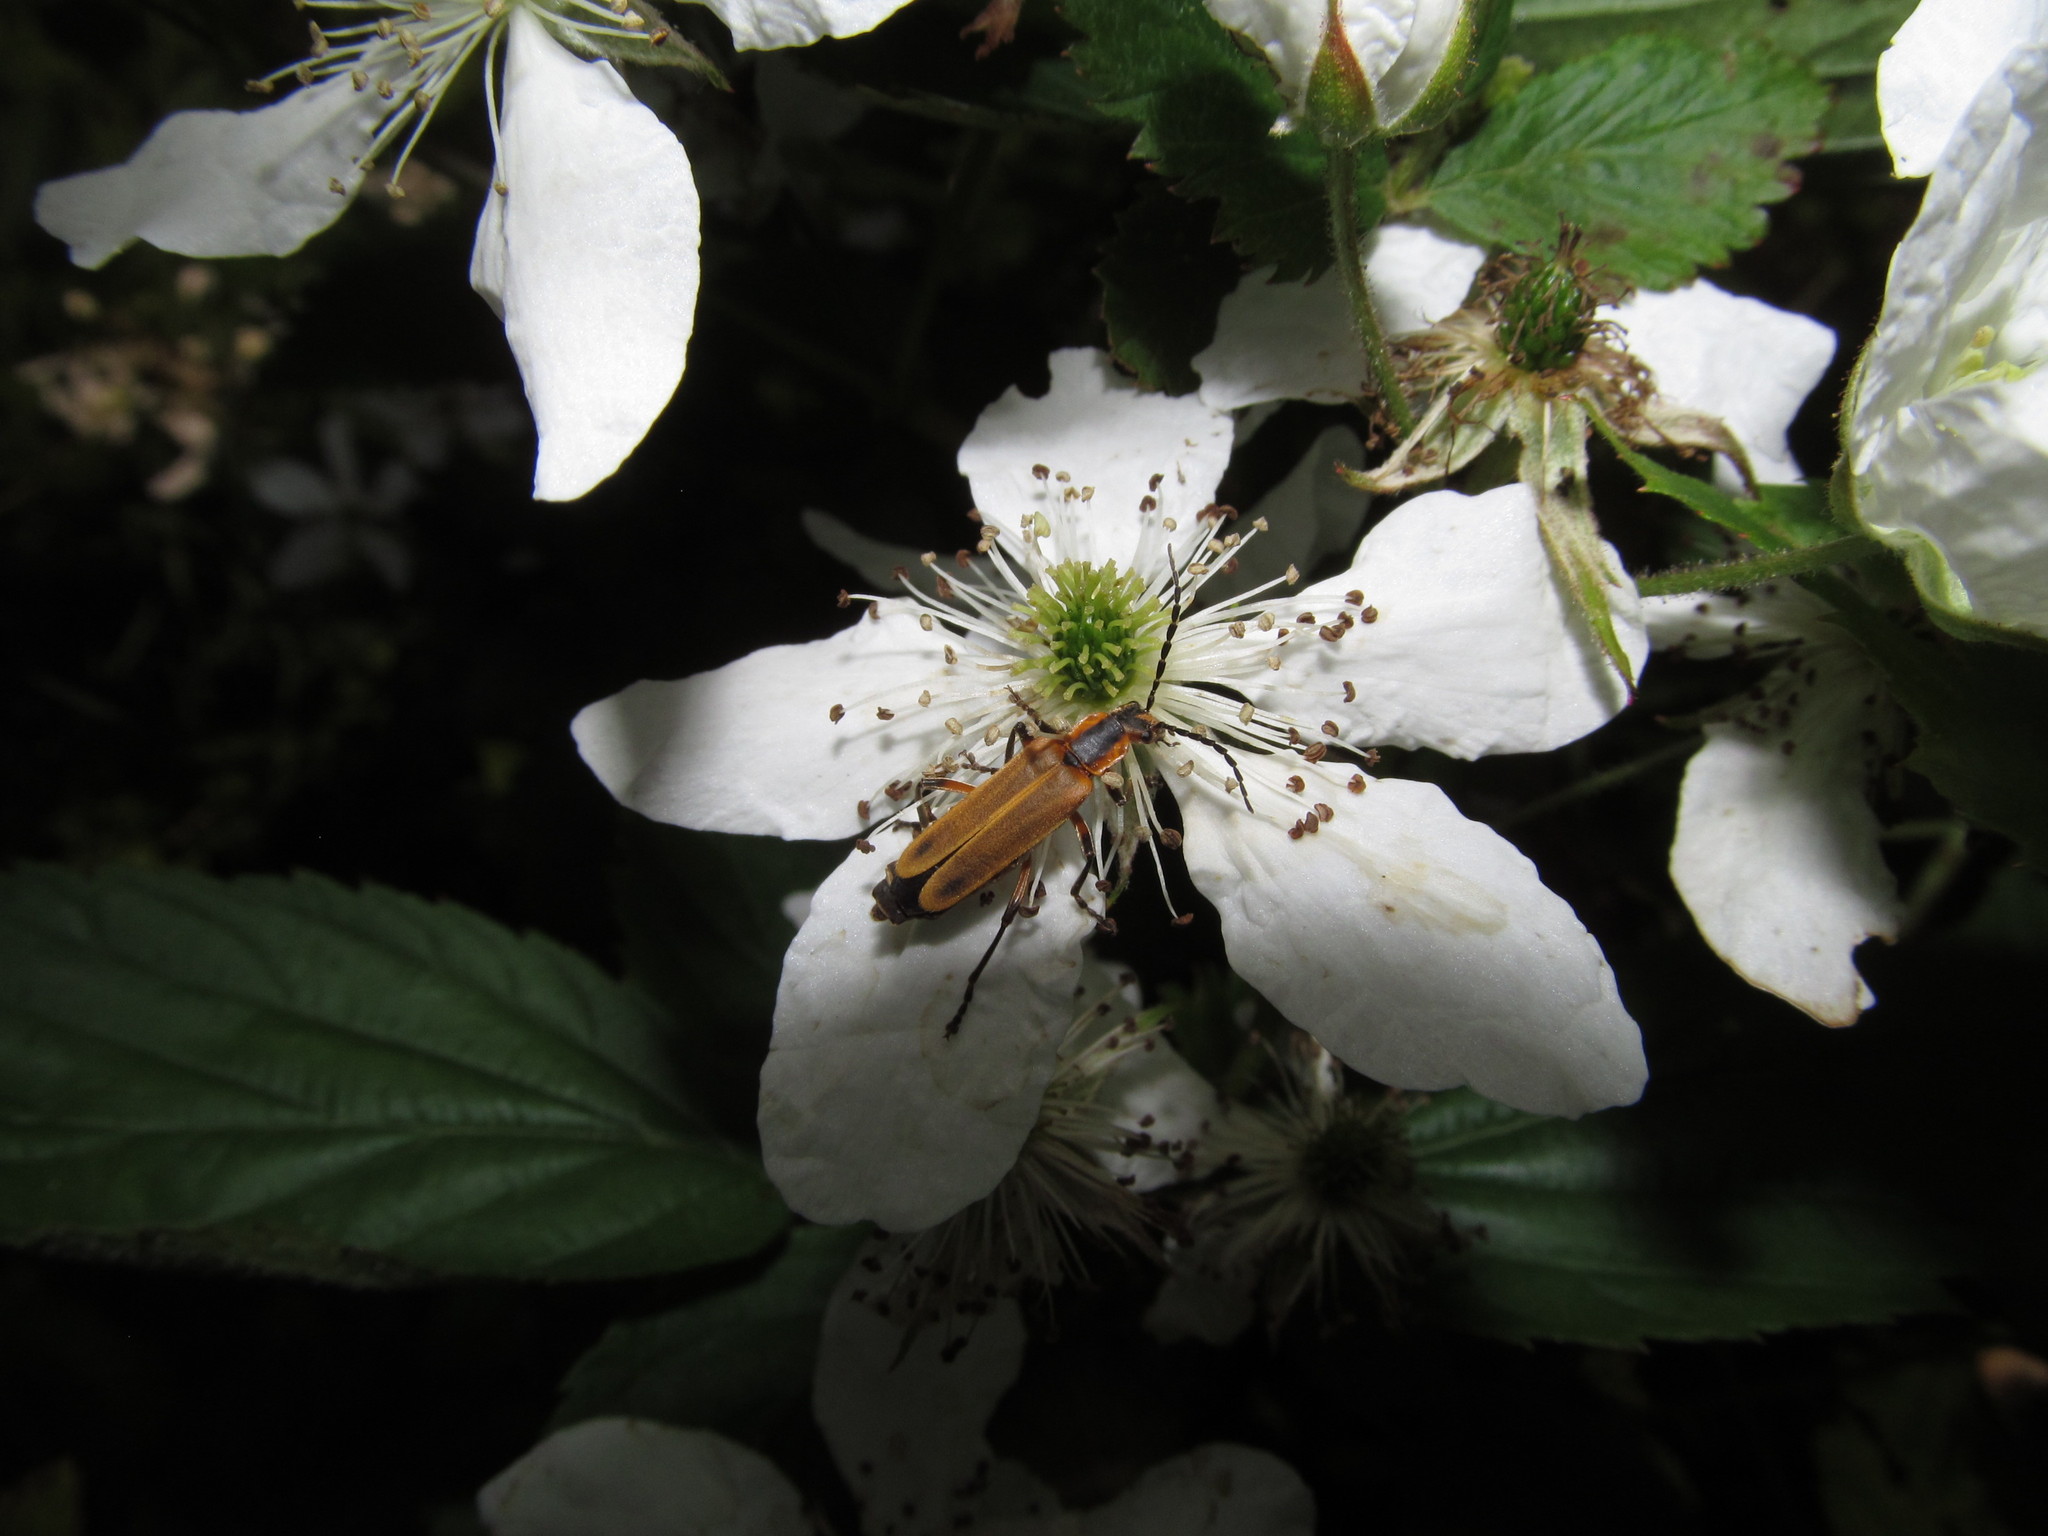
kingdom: Animalia
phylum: Arthropoda
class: Insecta
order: Coleoptera
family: Cantharidae
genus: Chauliognathus
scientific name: Chauliognathus marginatus
